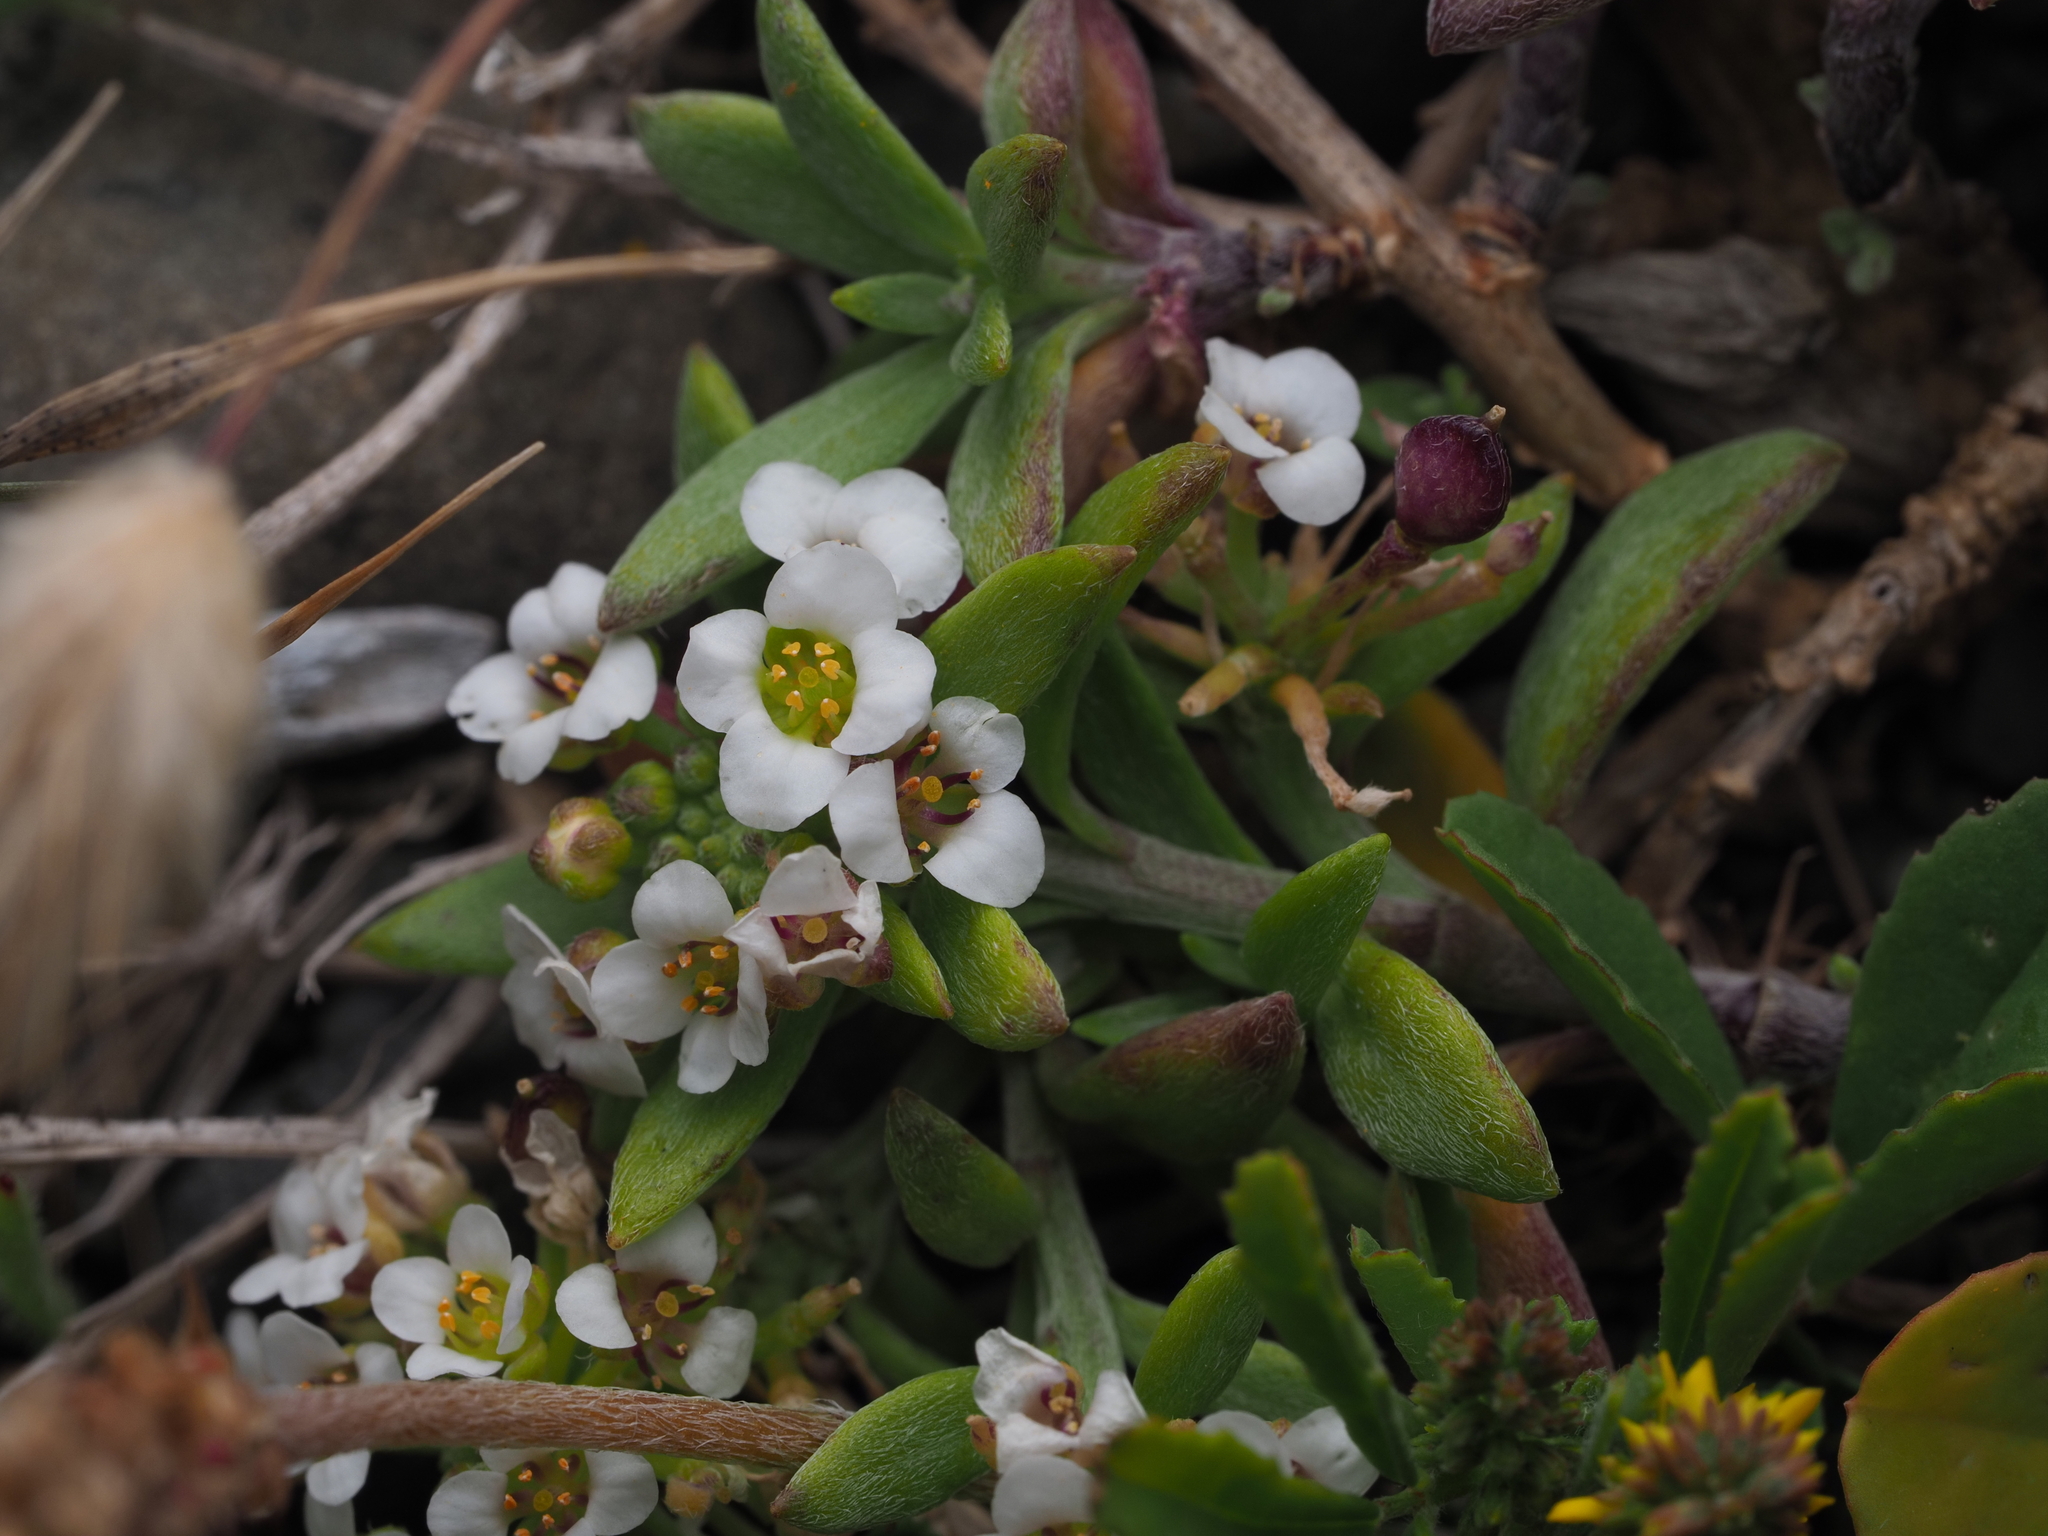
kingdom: Plantae
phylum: Tracheophyta
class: Magnoliopsida
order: Brassicales
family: Brassicaceae
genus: Lobularia
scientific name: Lobularia maritima
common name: Sweet alison
